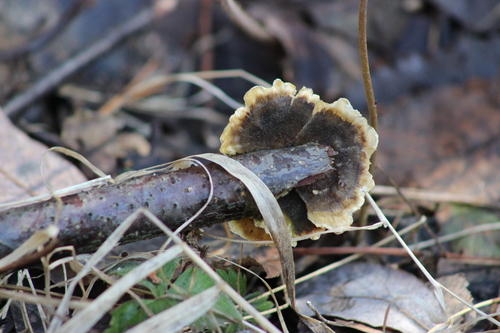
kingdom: Fungi
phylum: Basidiomycota
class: Agaricomycetes
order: Polyporales
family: Polyporaceae
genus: Trametes
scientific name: Trametes versicolor
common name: Turkeytail
